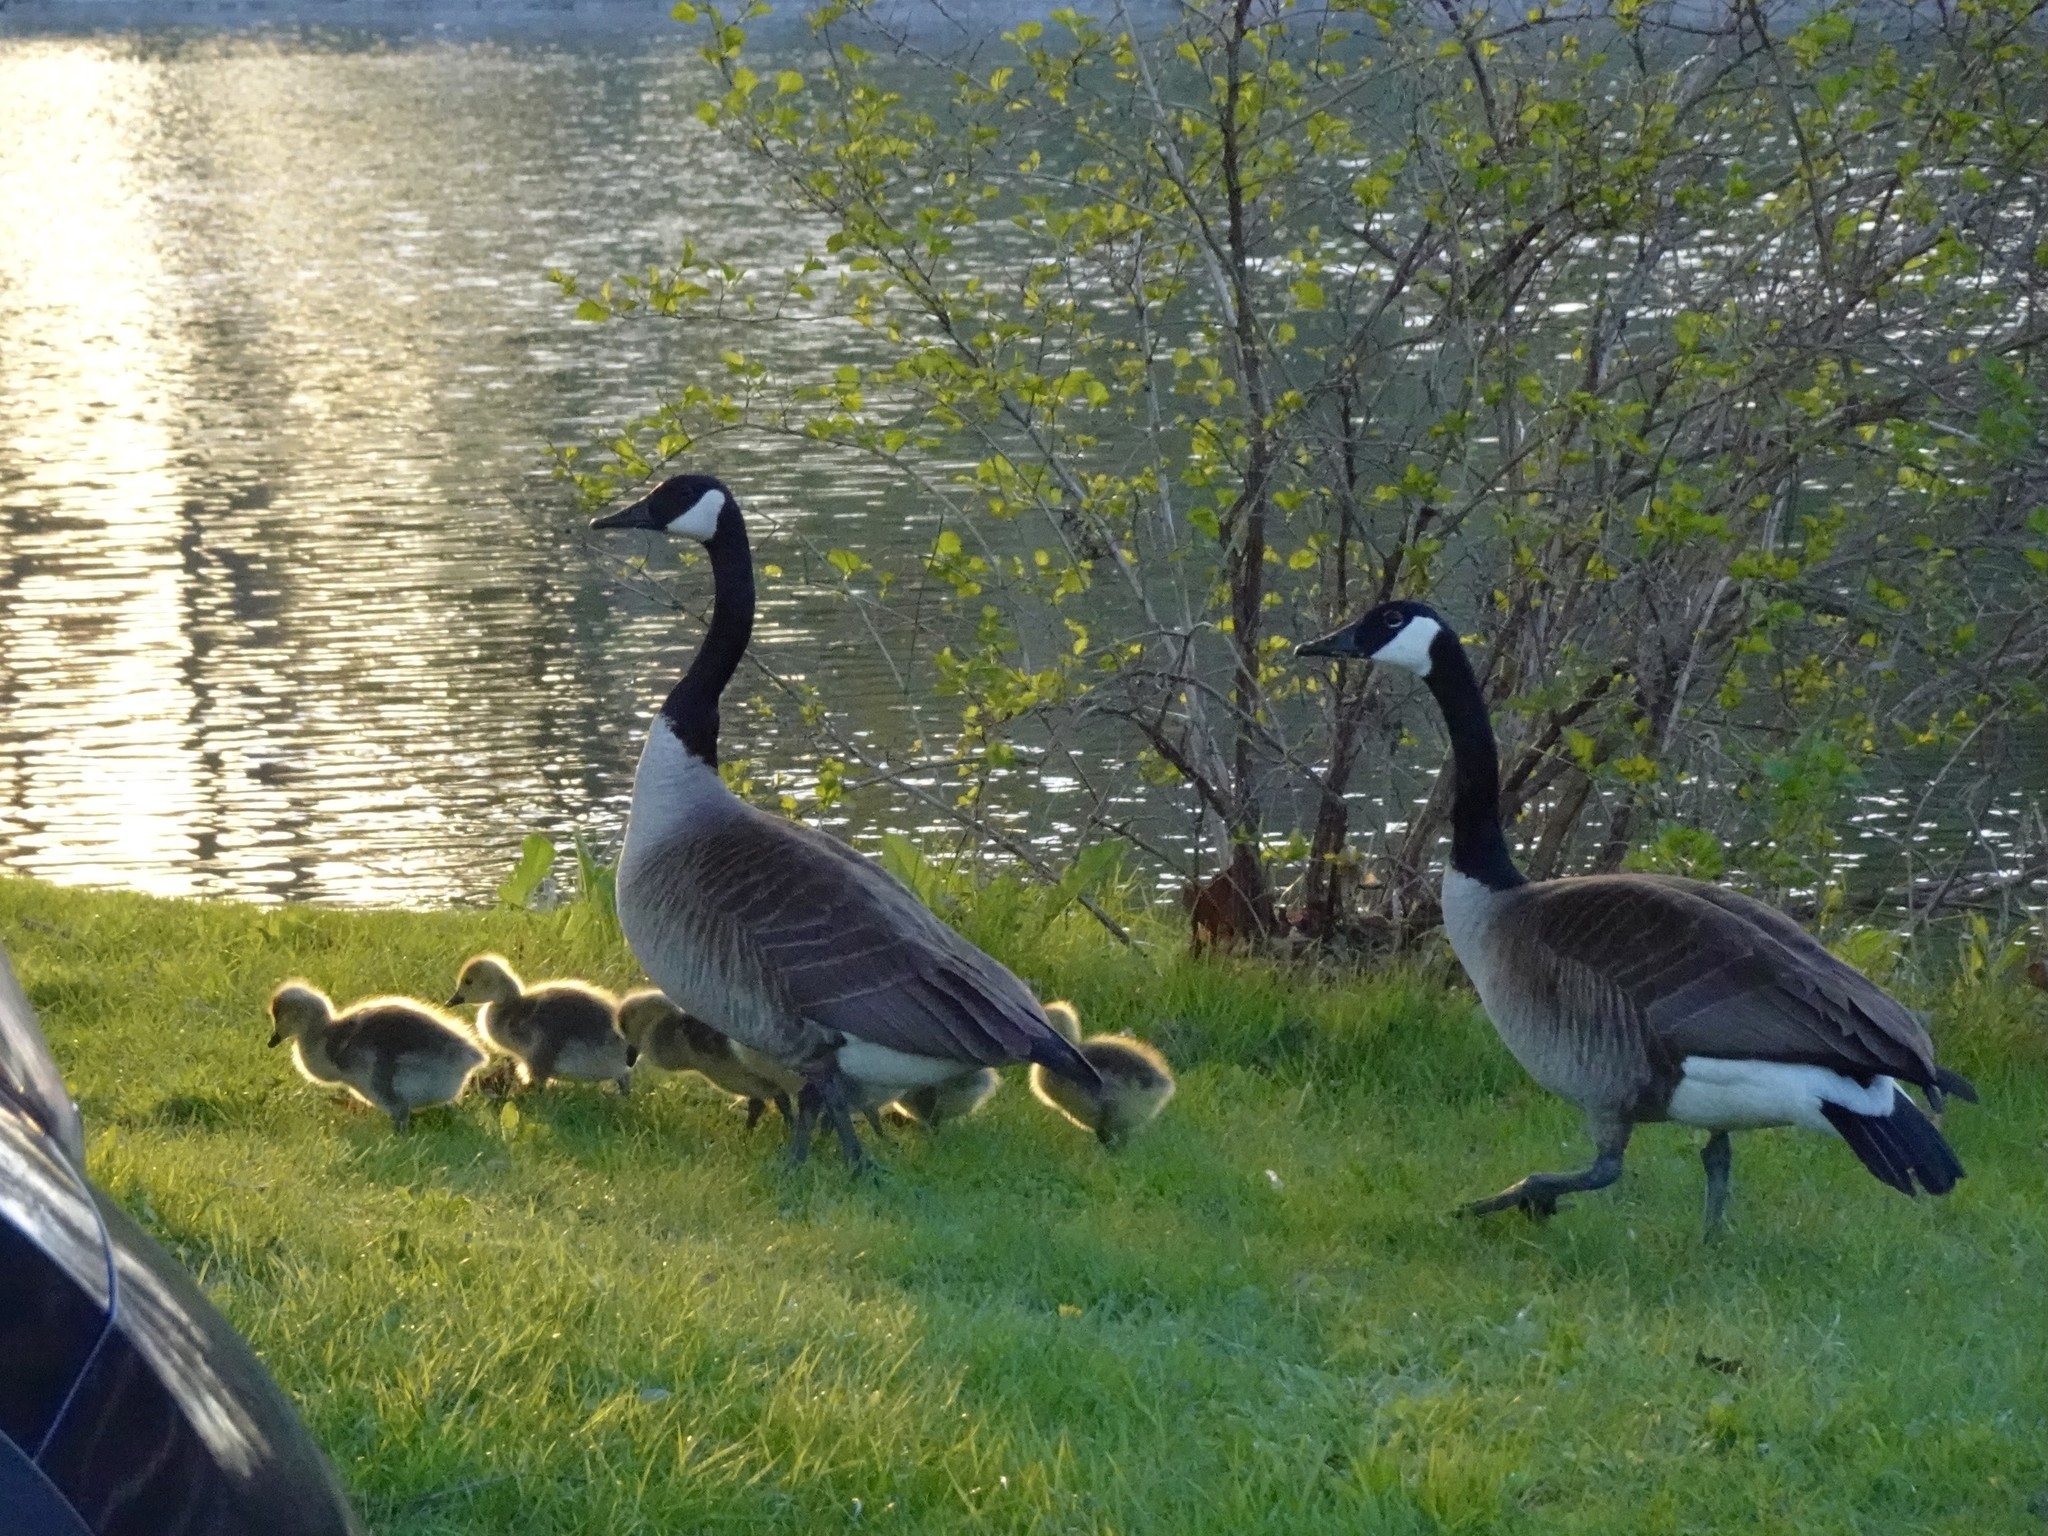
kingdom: Animalia
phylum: Chordata
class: Aves
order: Anseriformes
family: Anatidae
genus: Branta
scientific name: Branta canadensis
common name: Canada goose
